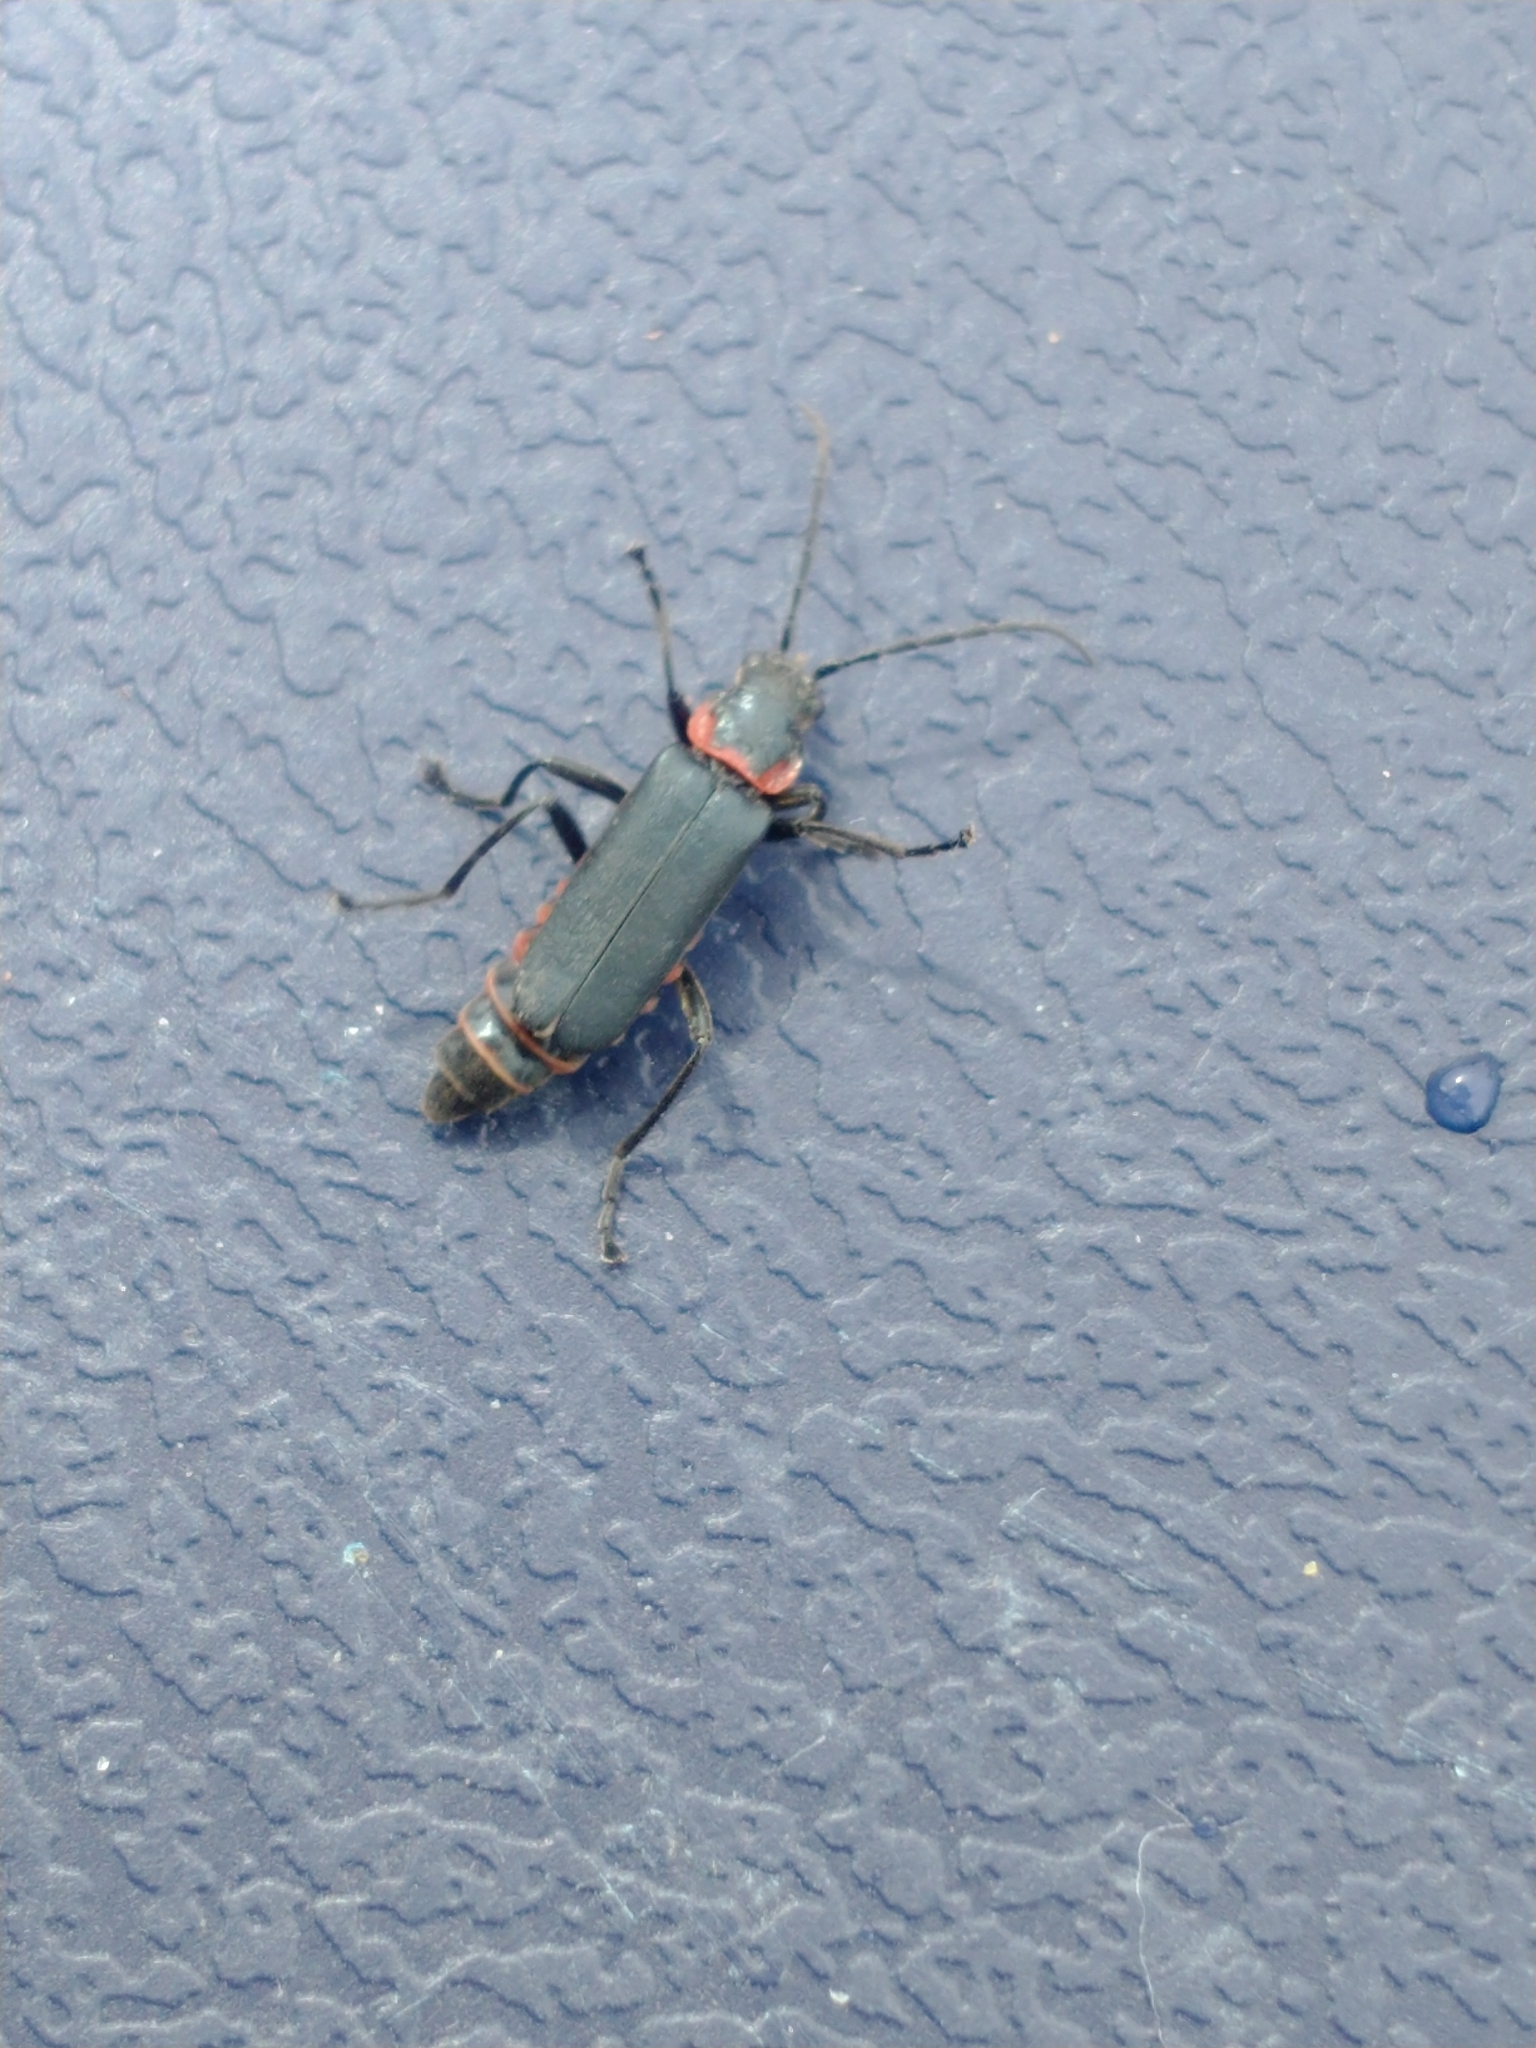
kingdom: Animalia
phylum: Arthropoda
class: Insecta
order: Coleoptera
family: Cantharidae
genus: Chauliognathus
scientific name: Chauliognathus
